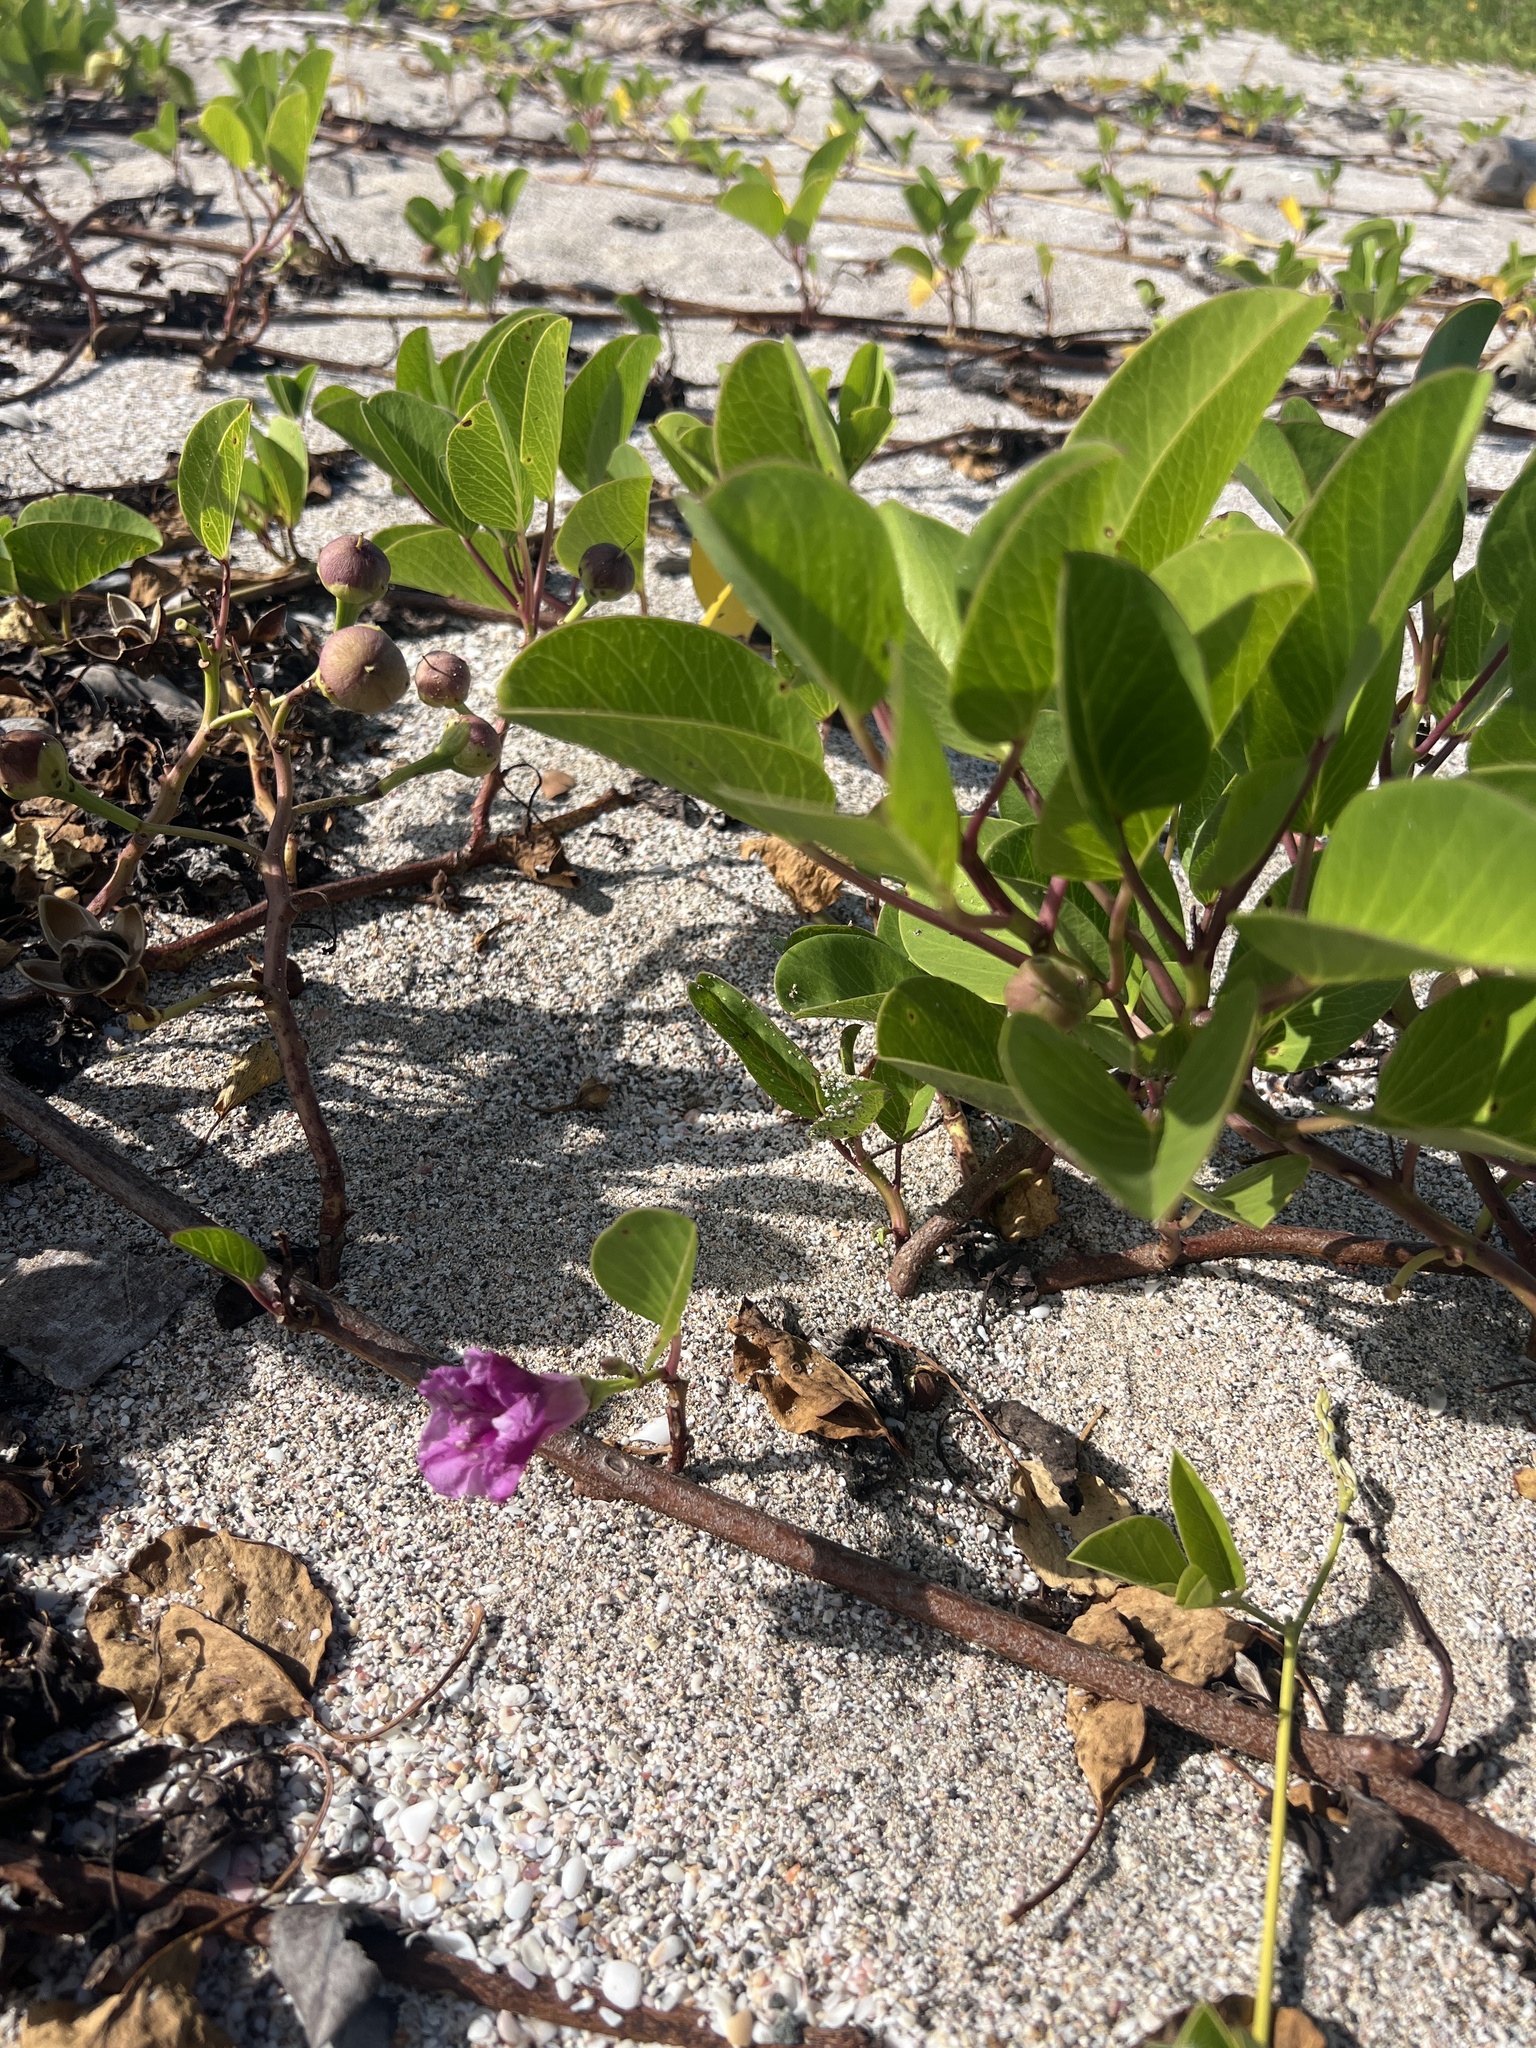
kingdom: Plantae
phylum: Tracheophyta
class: Magnoliopsida
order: Solanales
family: Convolvulaceae
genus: Ipomoea
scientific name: Ipomoea pes-caprae
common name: Beach morning glory
